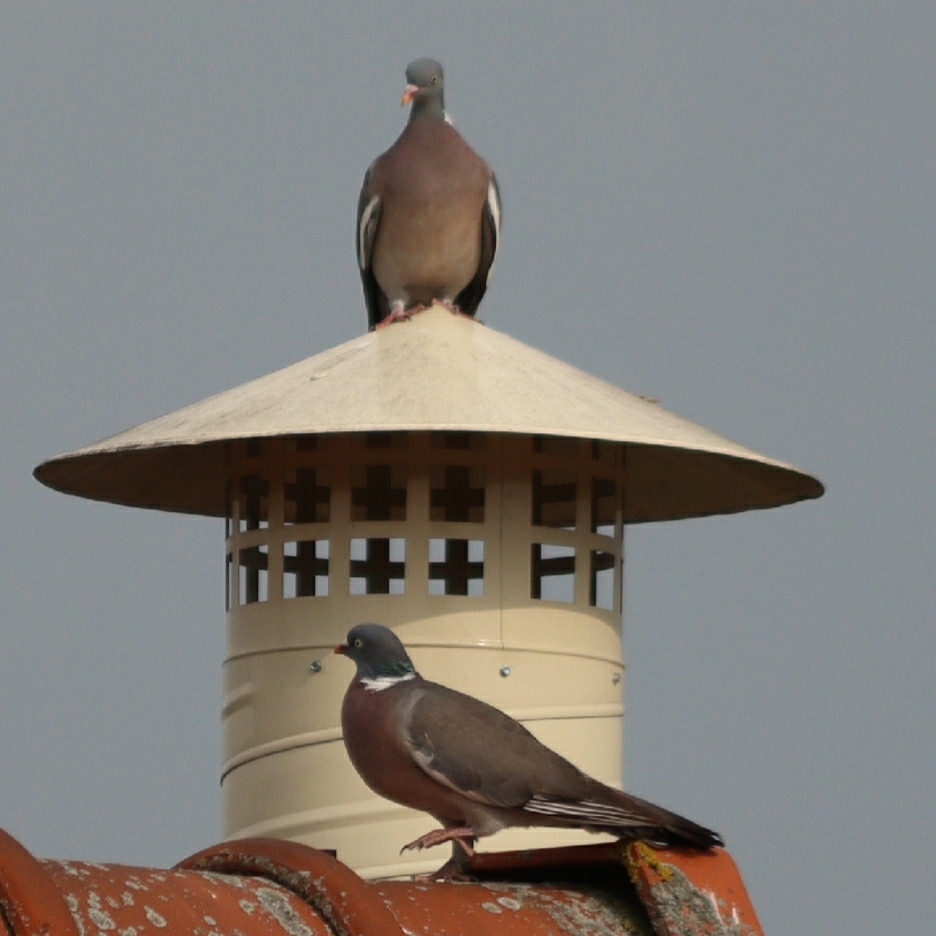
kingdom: Animalia
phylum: Chordata
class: Aves
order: Columbiformes
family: Columbidae
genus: Columba
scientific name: Columba palumbus
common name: Common wood pigeon
